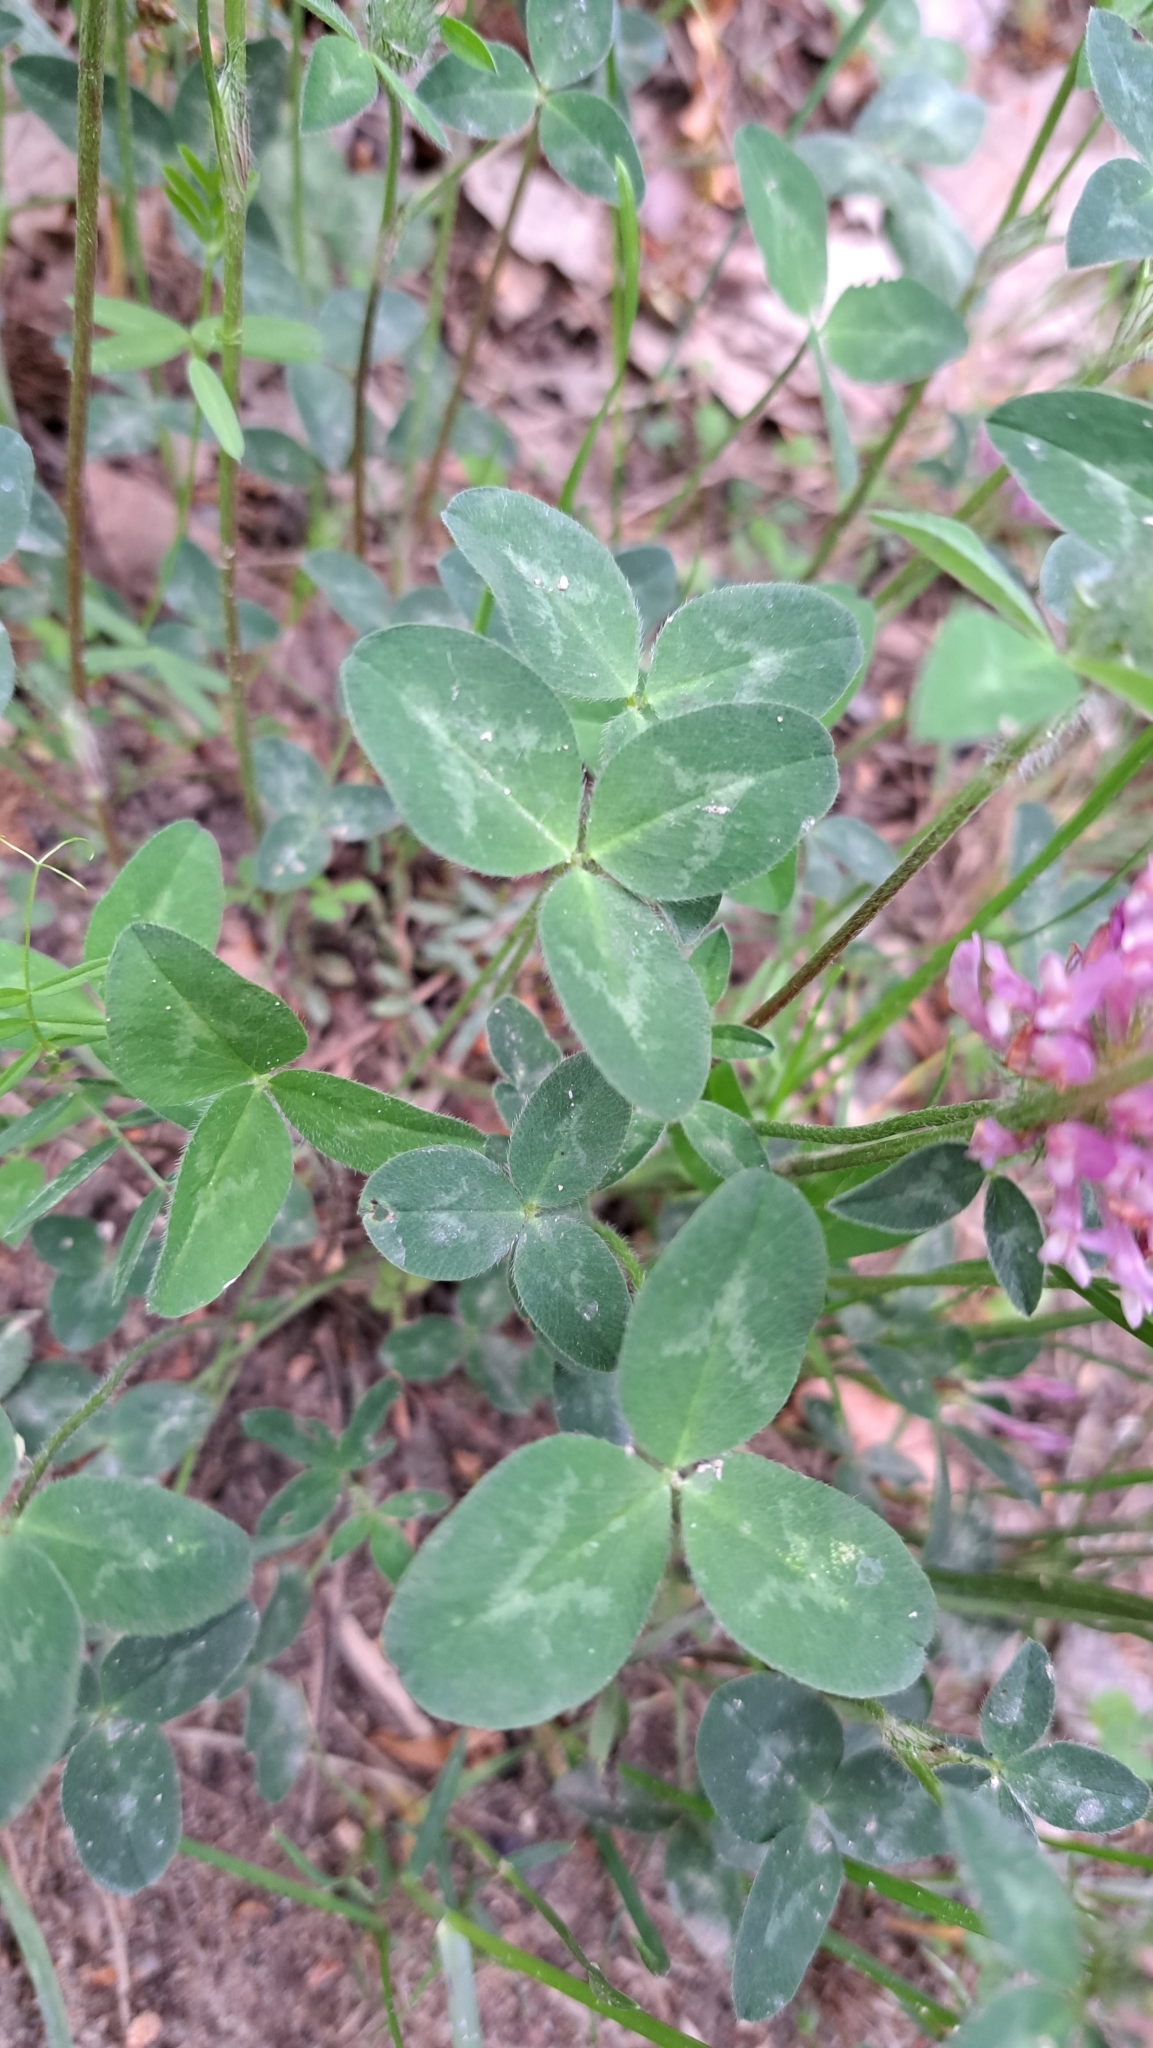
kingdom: Plantae
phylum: Tracheophyta
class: Magnoliopsida
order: Fabales
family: Fabaceae
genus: Trifolium
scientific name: Trifolium pratense
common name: Red clover
